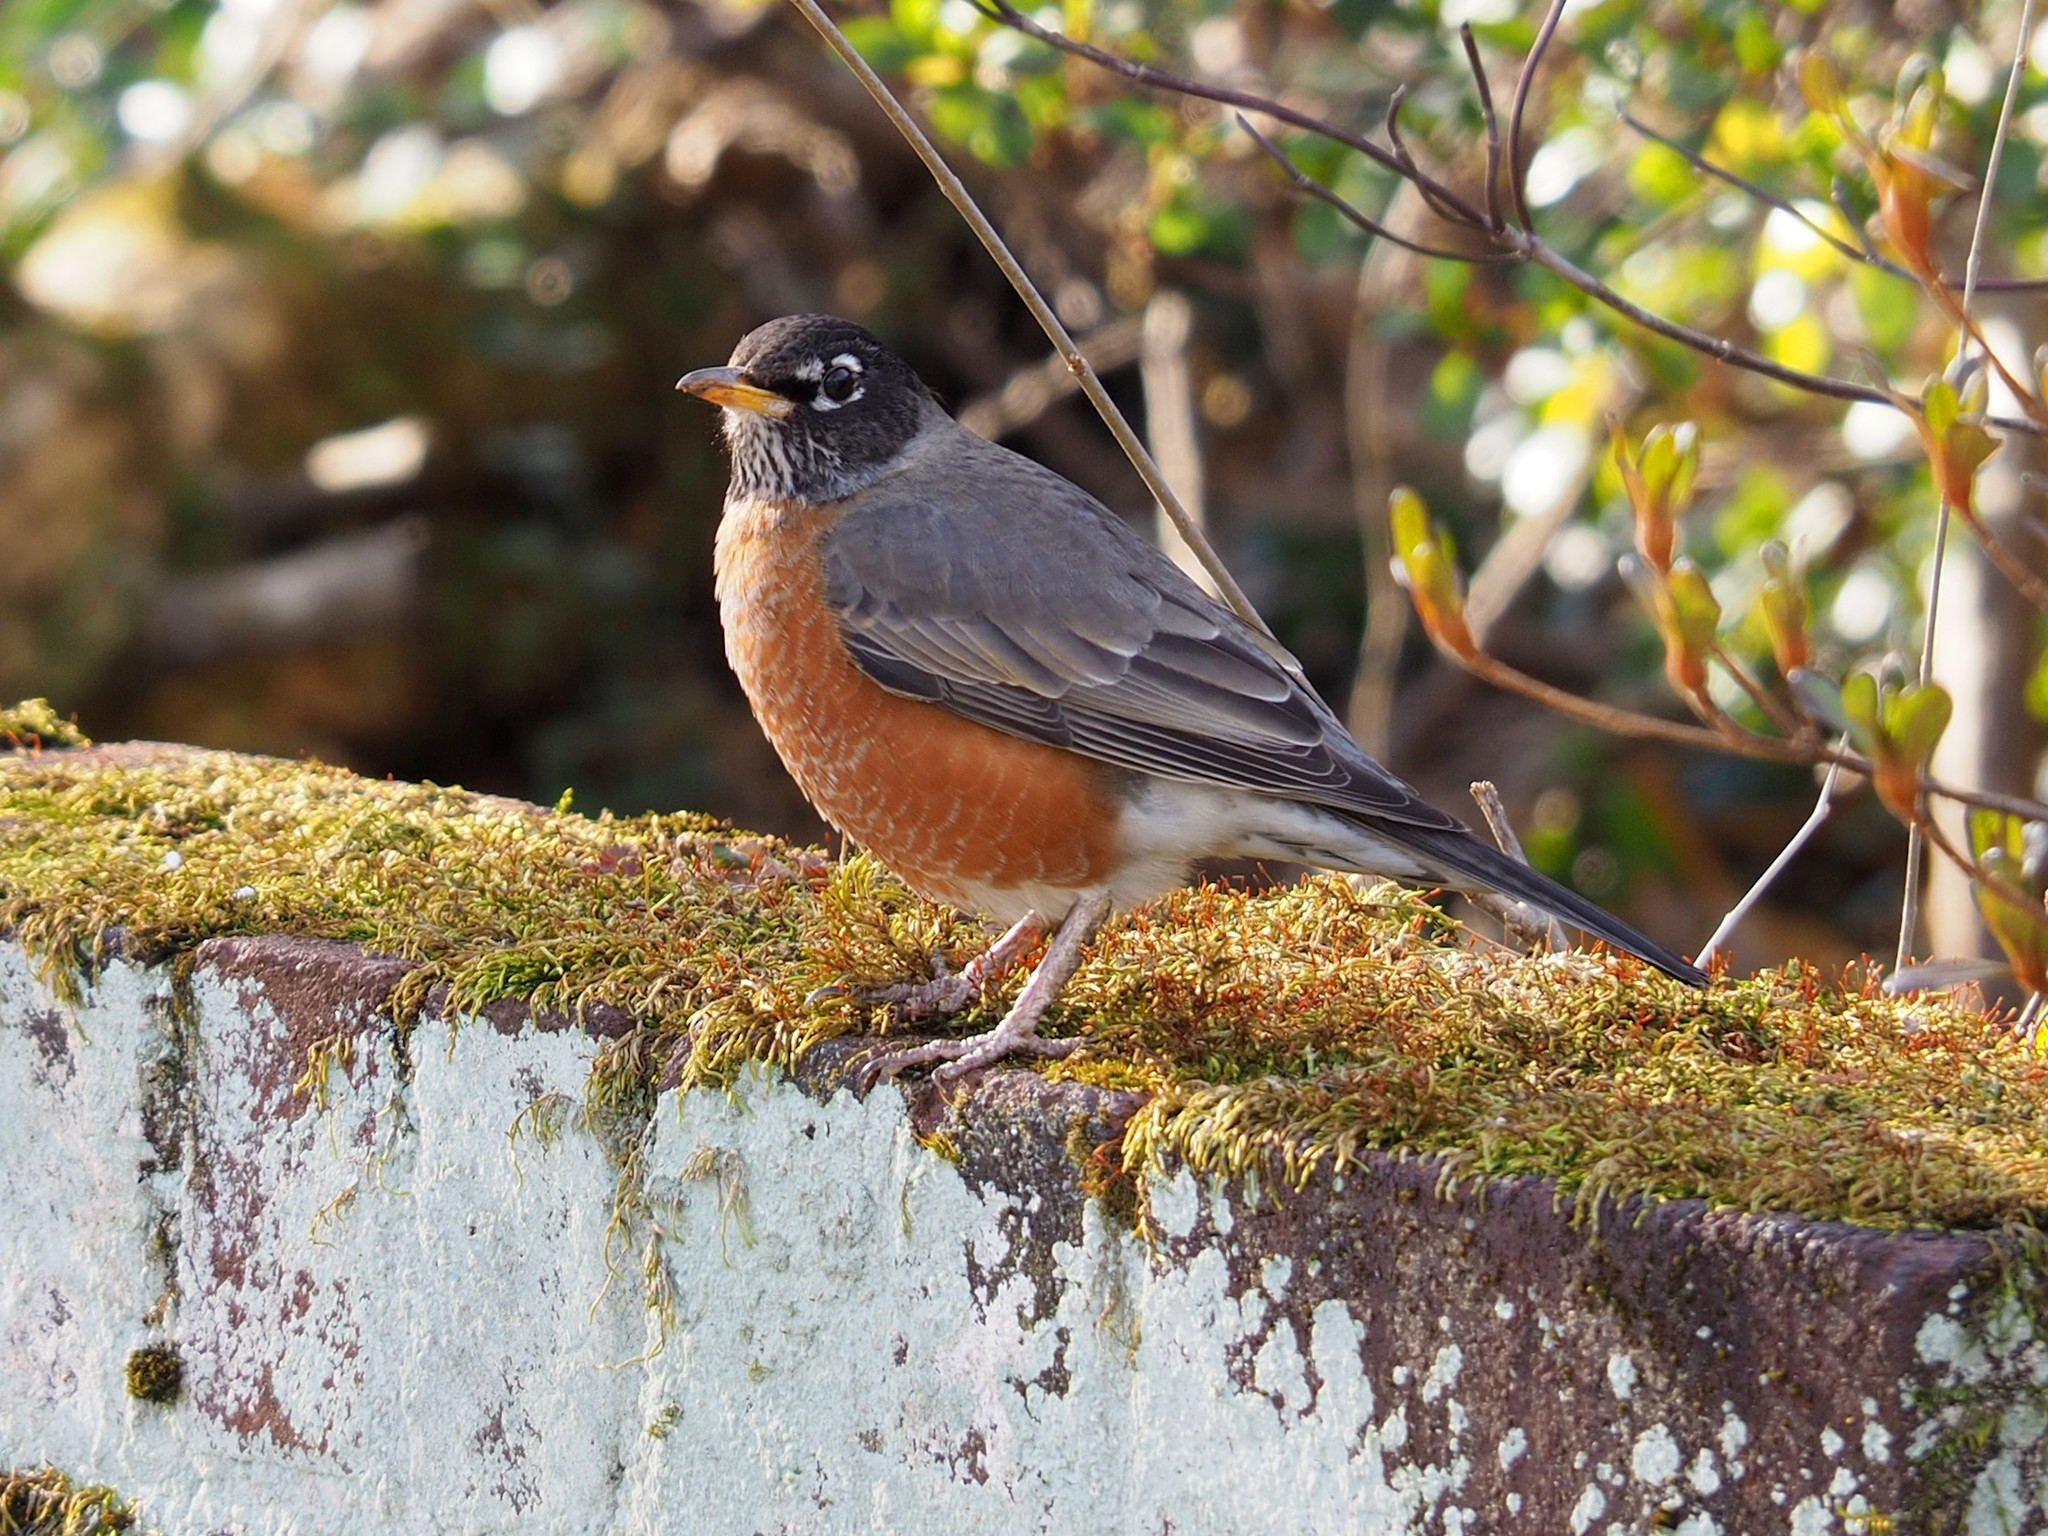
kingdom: Animalia
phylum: Chordata
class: Aves
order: Passeriformes
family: Turdidae
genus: Turdus
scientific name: Turdus migratorius
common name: American robin
